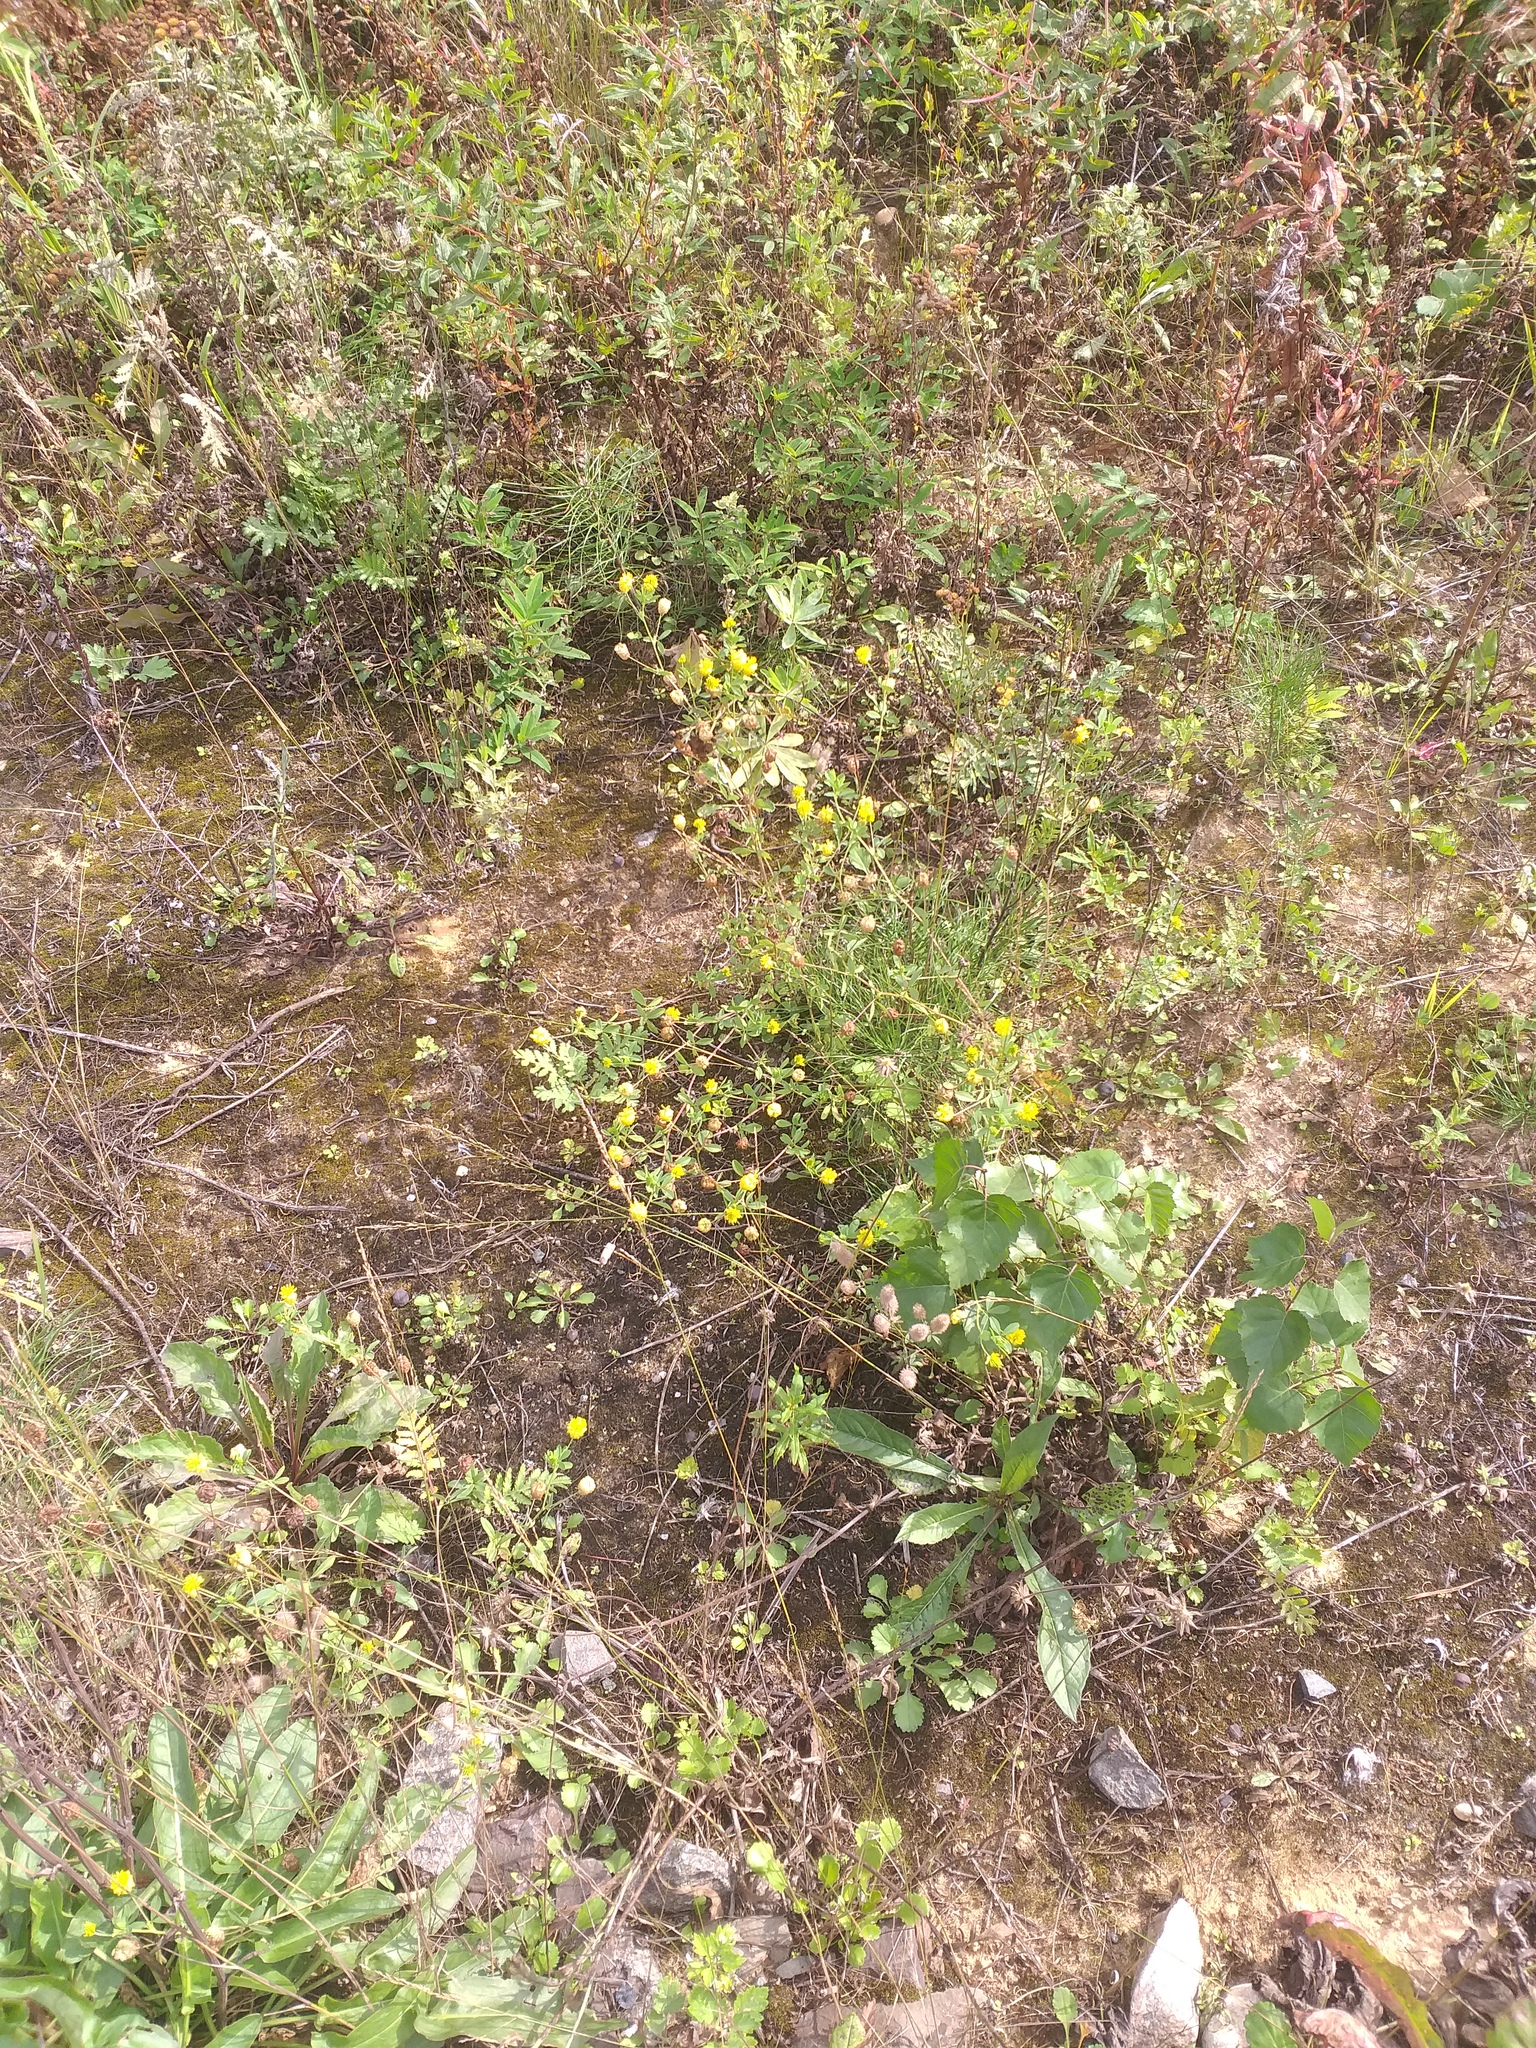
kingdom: Plantae
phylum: Tracheophyta
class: Magnoliopsida
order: Fabales
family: Fabaceae
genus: Trifolium
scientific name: Trifolium aureum
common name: Golden clover
